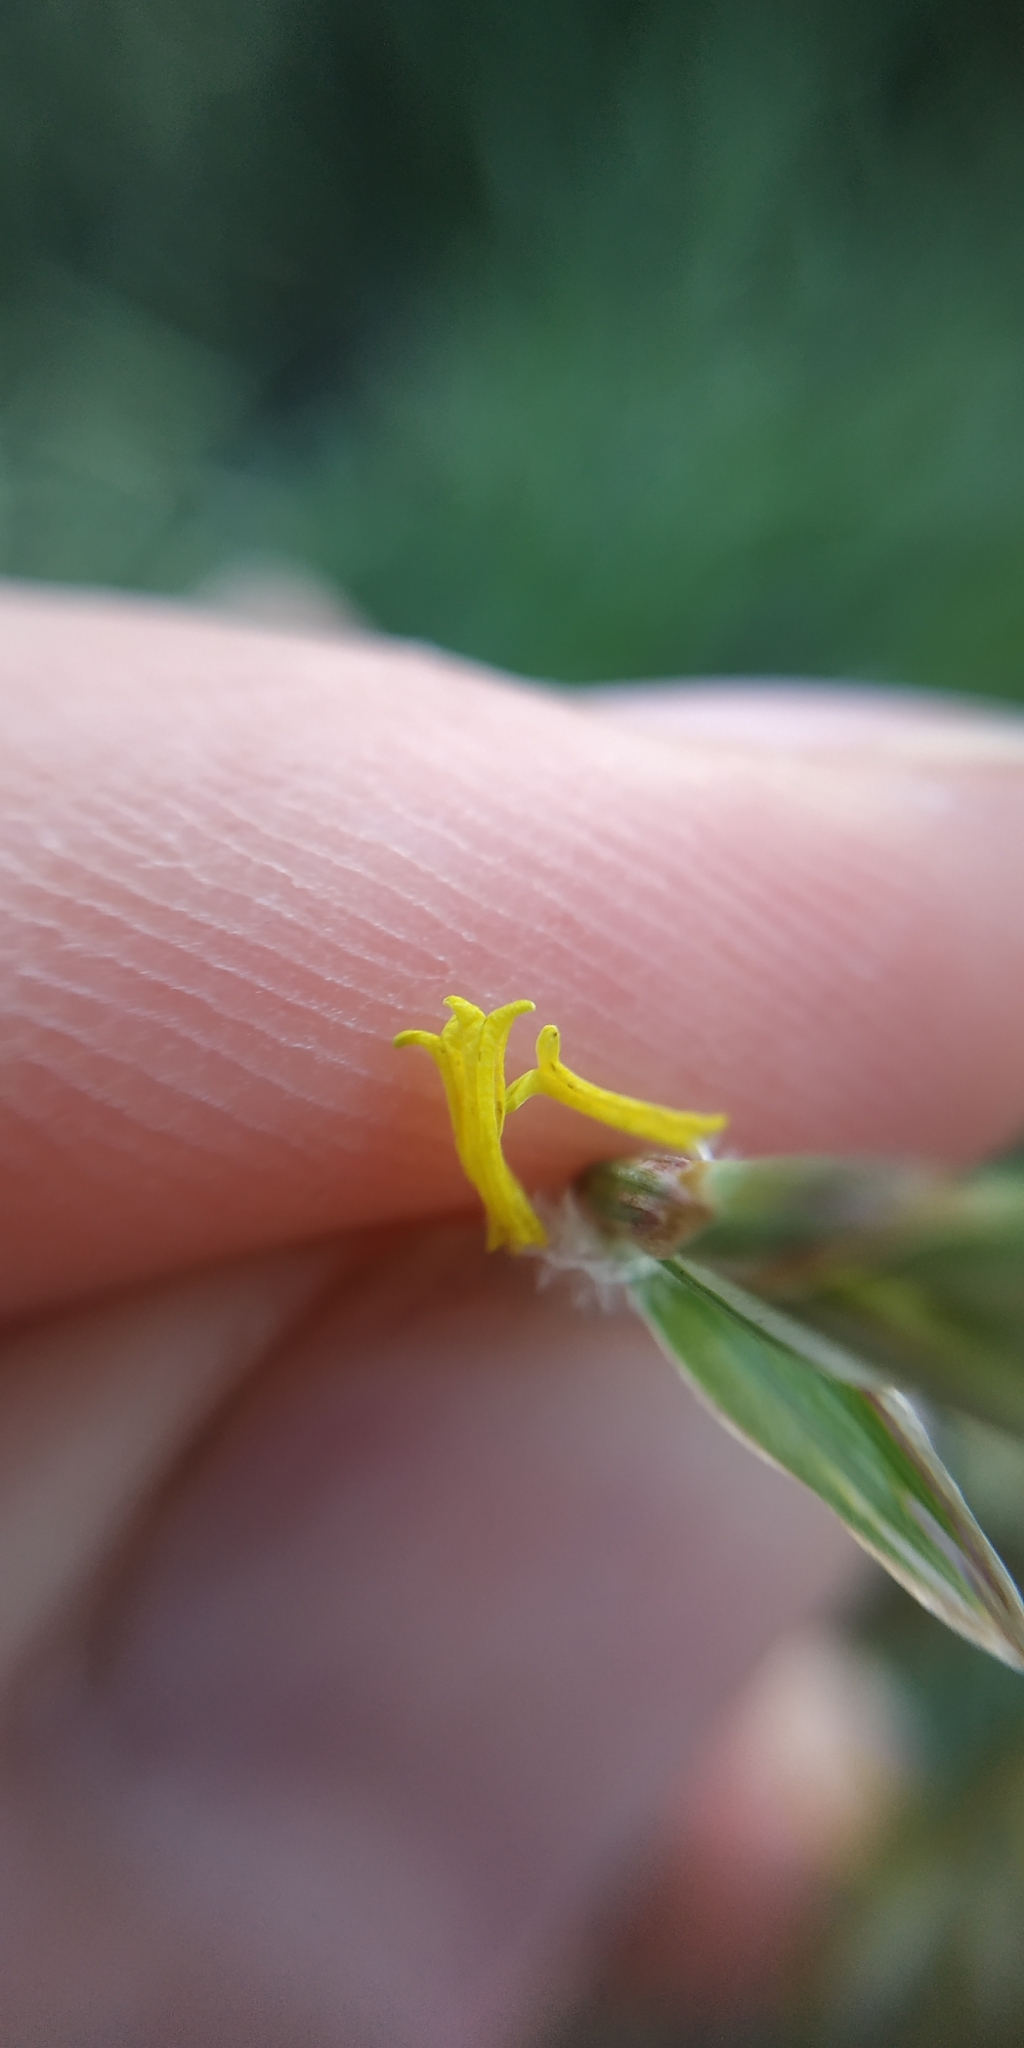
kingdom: Plantae
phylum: Tracheophyta
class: Liliopsida
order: Poales
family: Poaceae
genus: Bromus
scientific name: Bromus inermis
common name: Smooth brome
